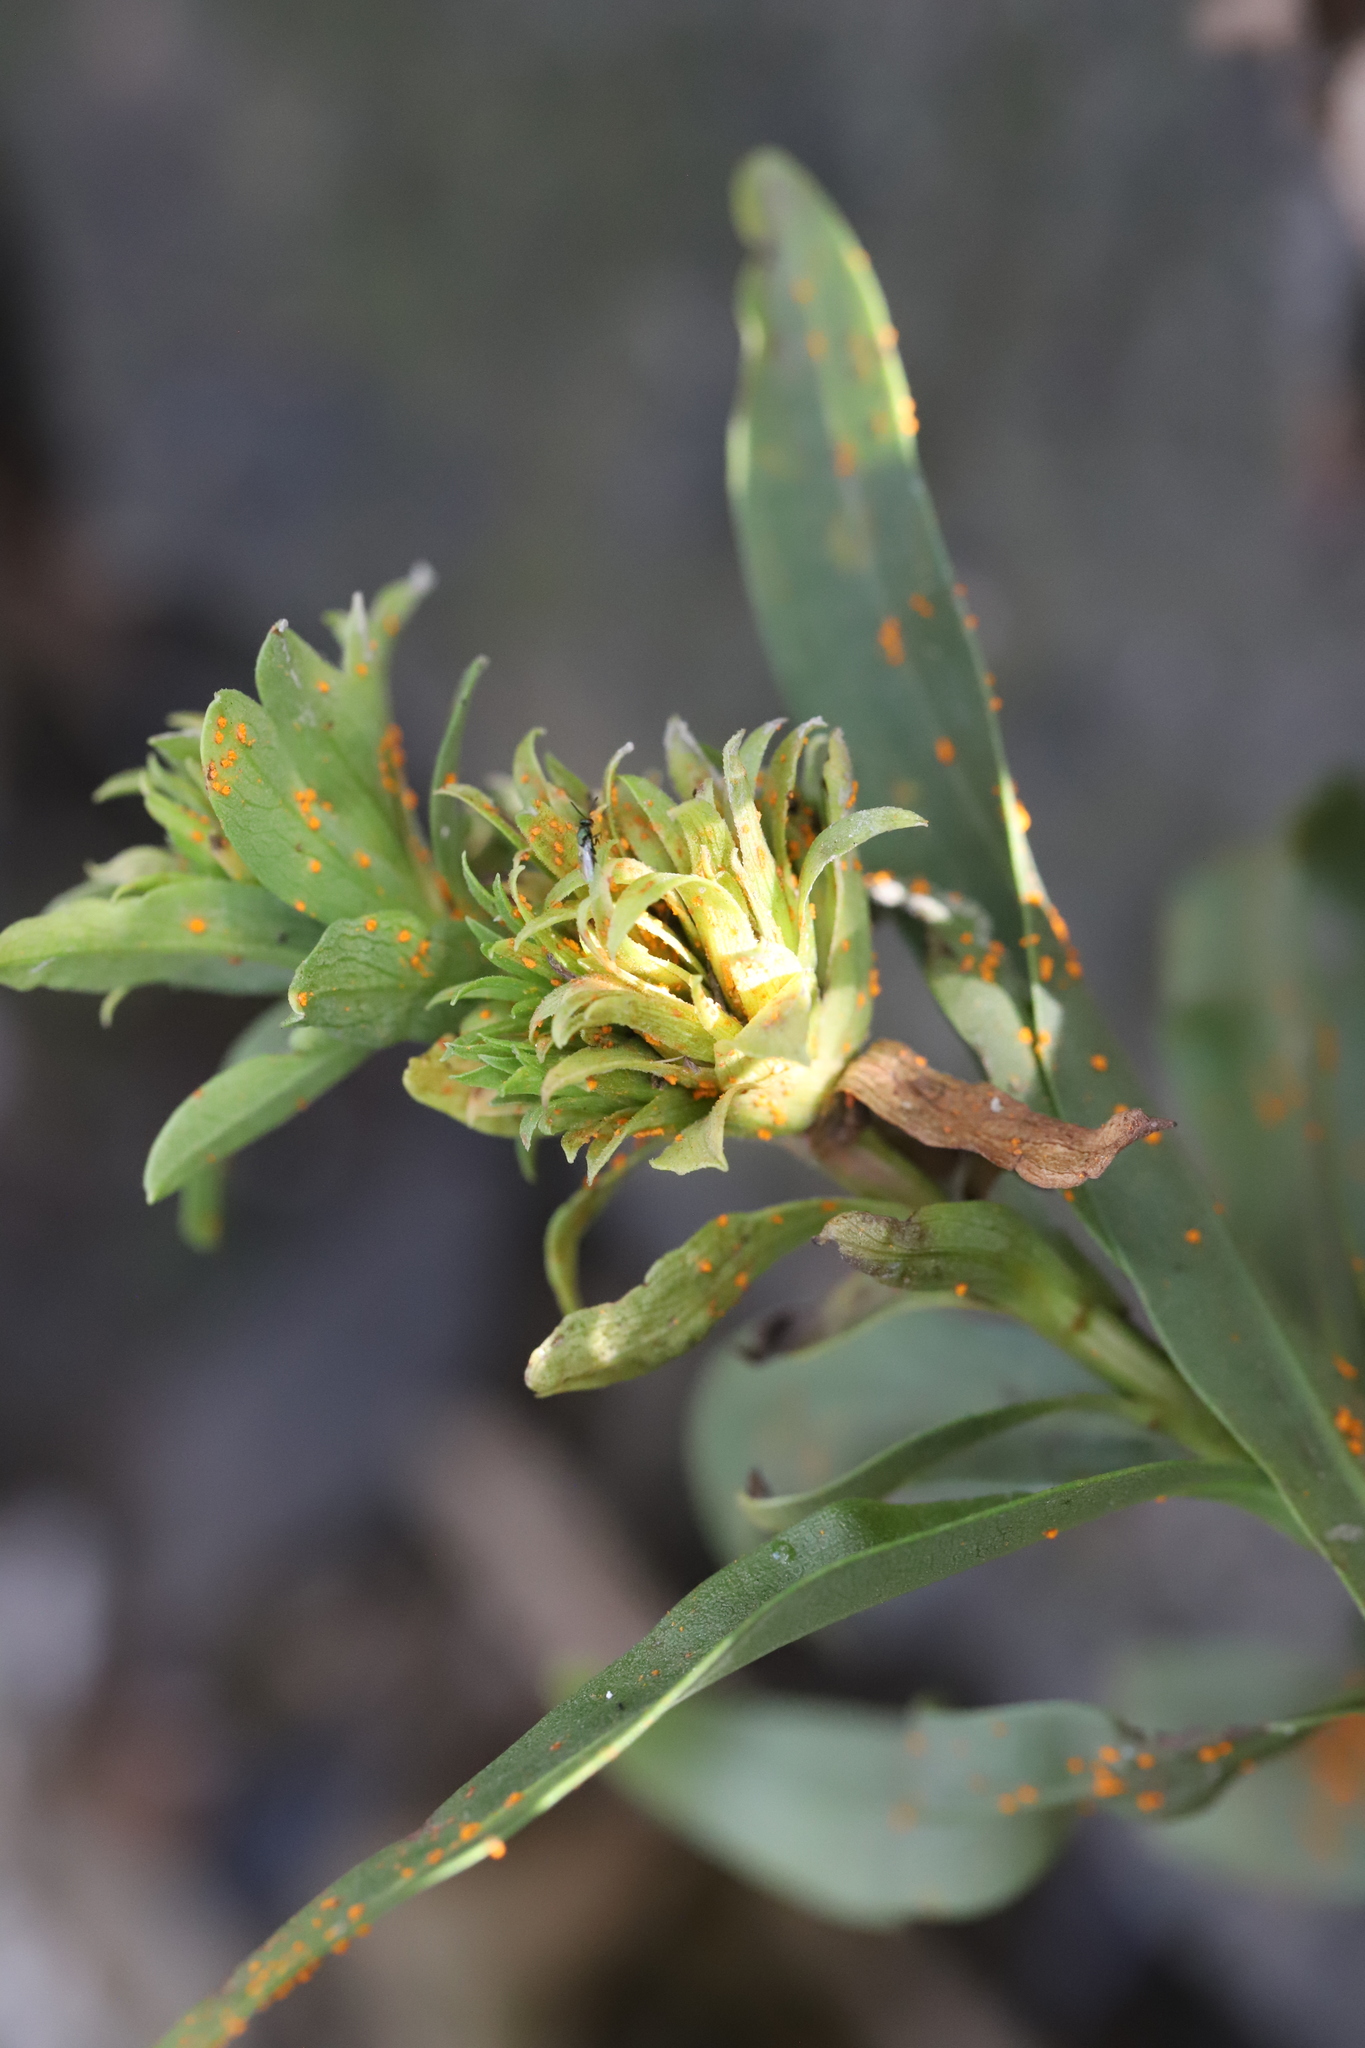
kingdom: Fungi
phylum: Basidiomycota
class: Pucciniomycetes
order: Pucciniales
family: Coleosporiaceae
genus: Coleosporium
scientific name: Coleosporium asterum
